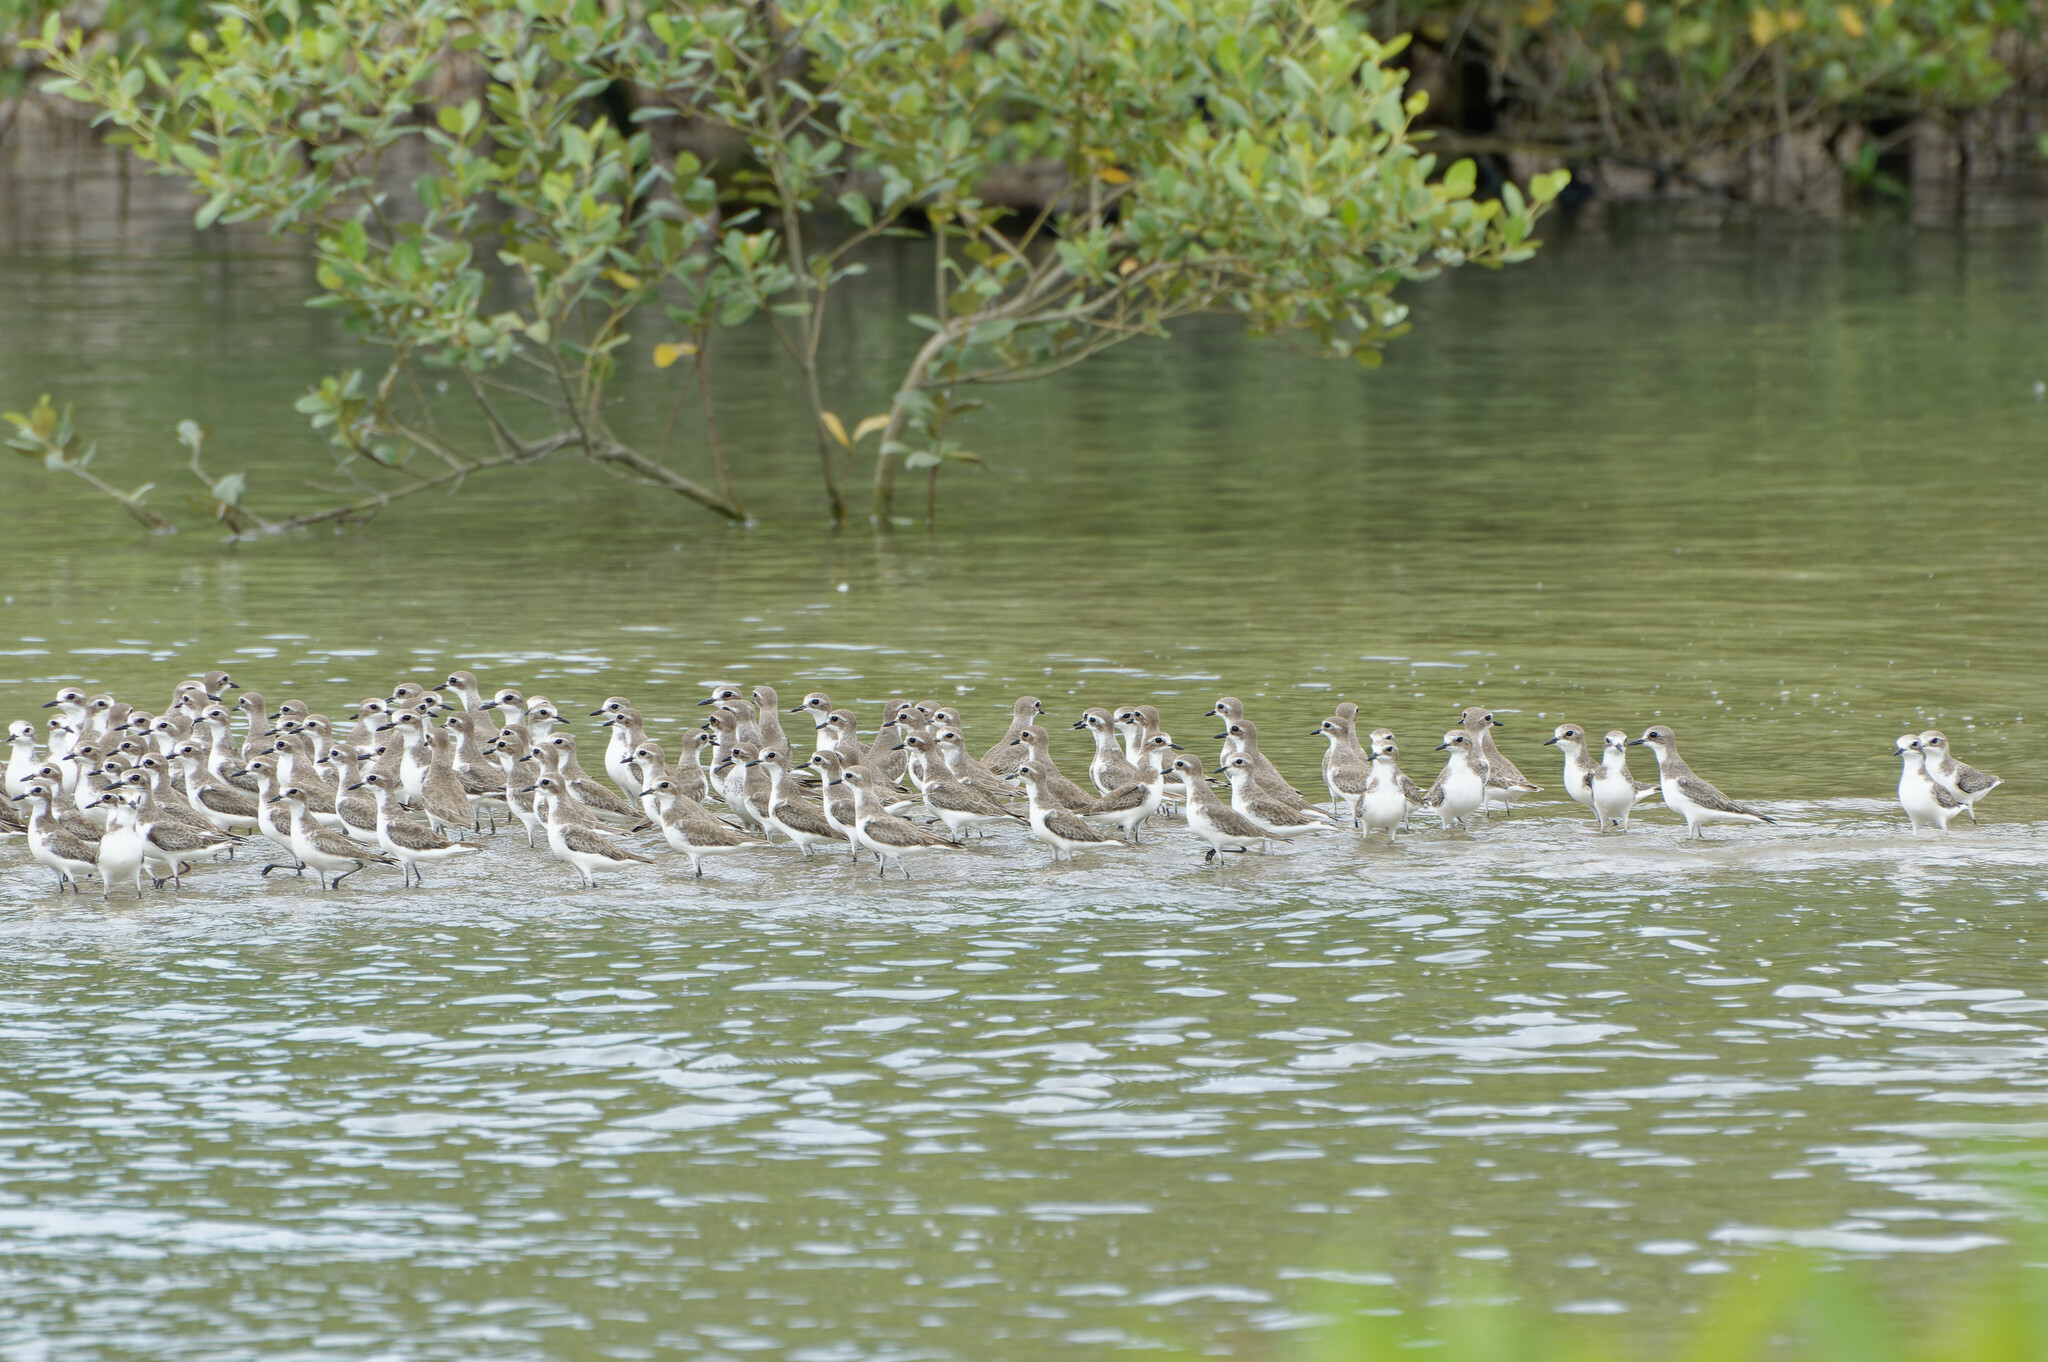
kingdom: Animalia
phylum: Chordata
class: Aves
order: Charadriiformes
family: Charadriidae
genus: Anarhynchus
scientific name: Anarhynchus
